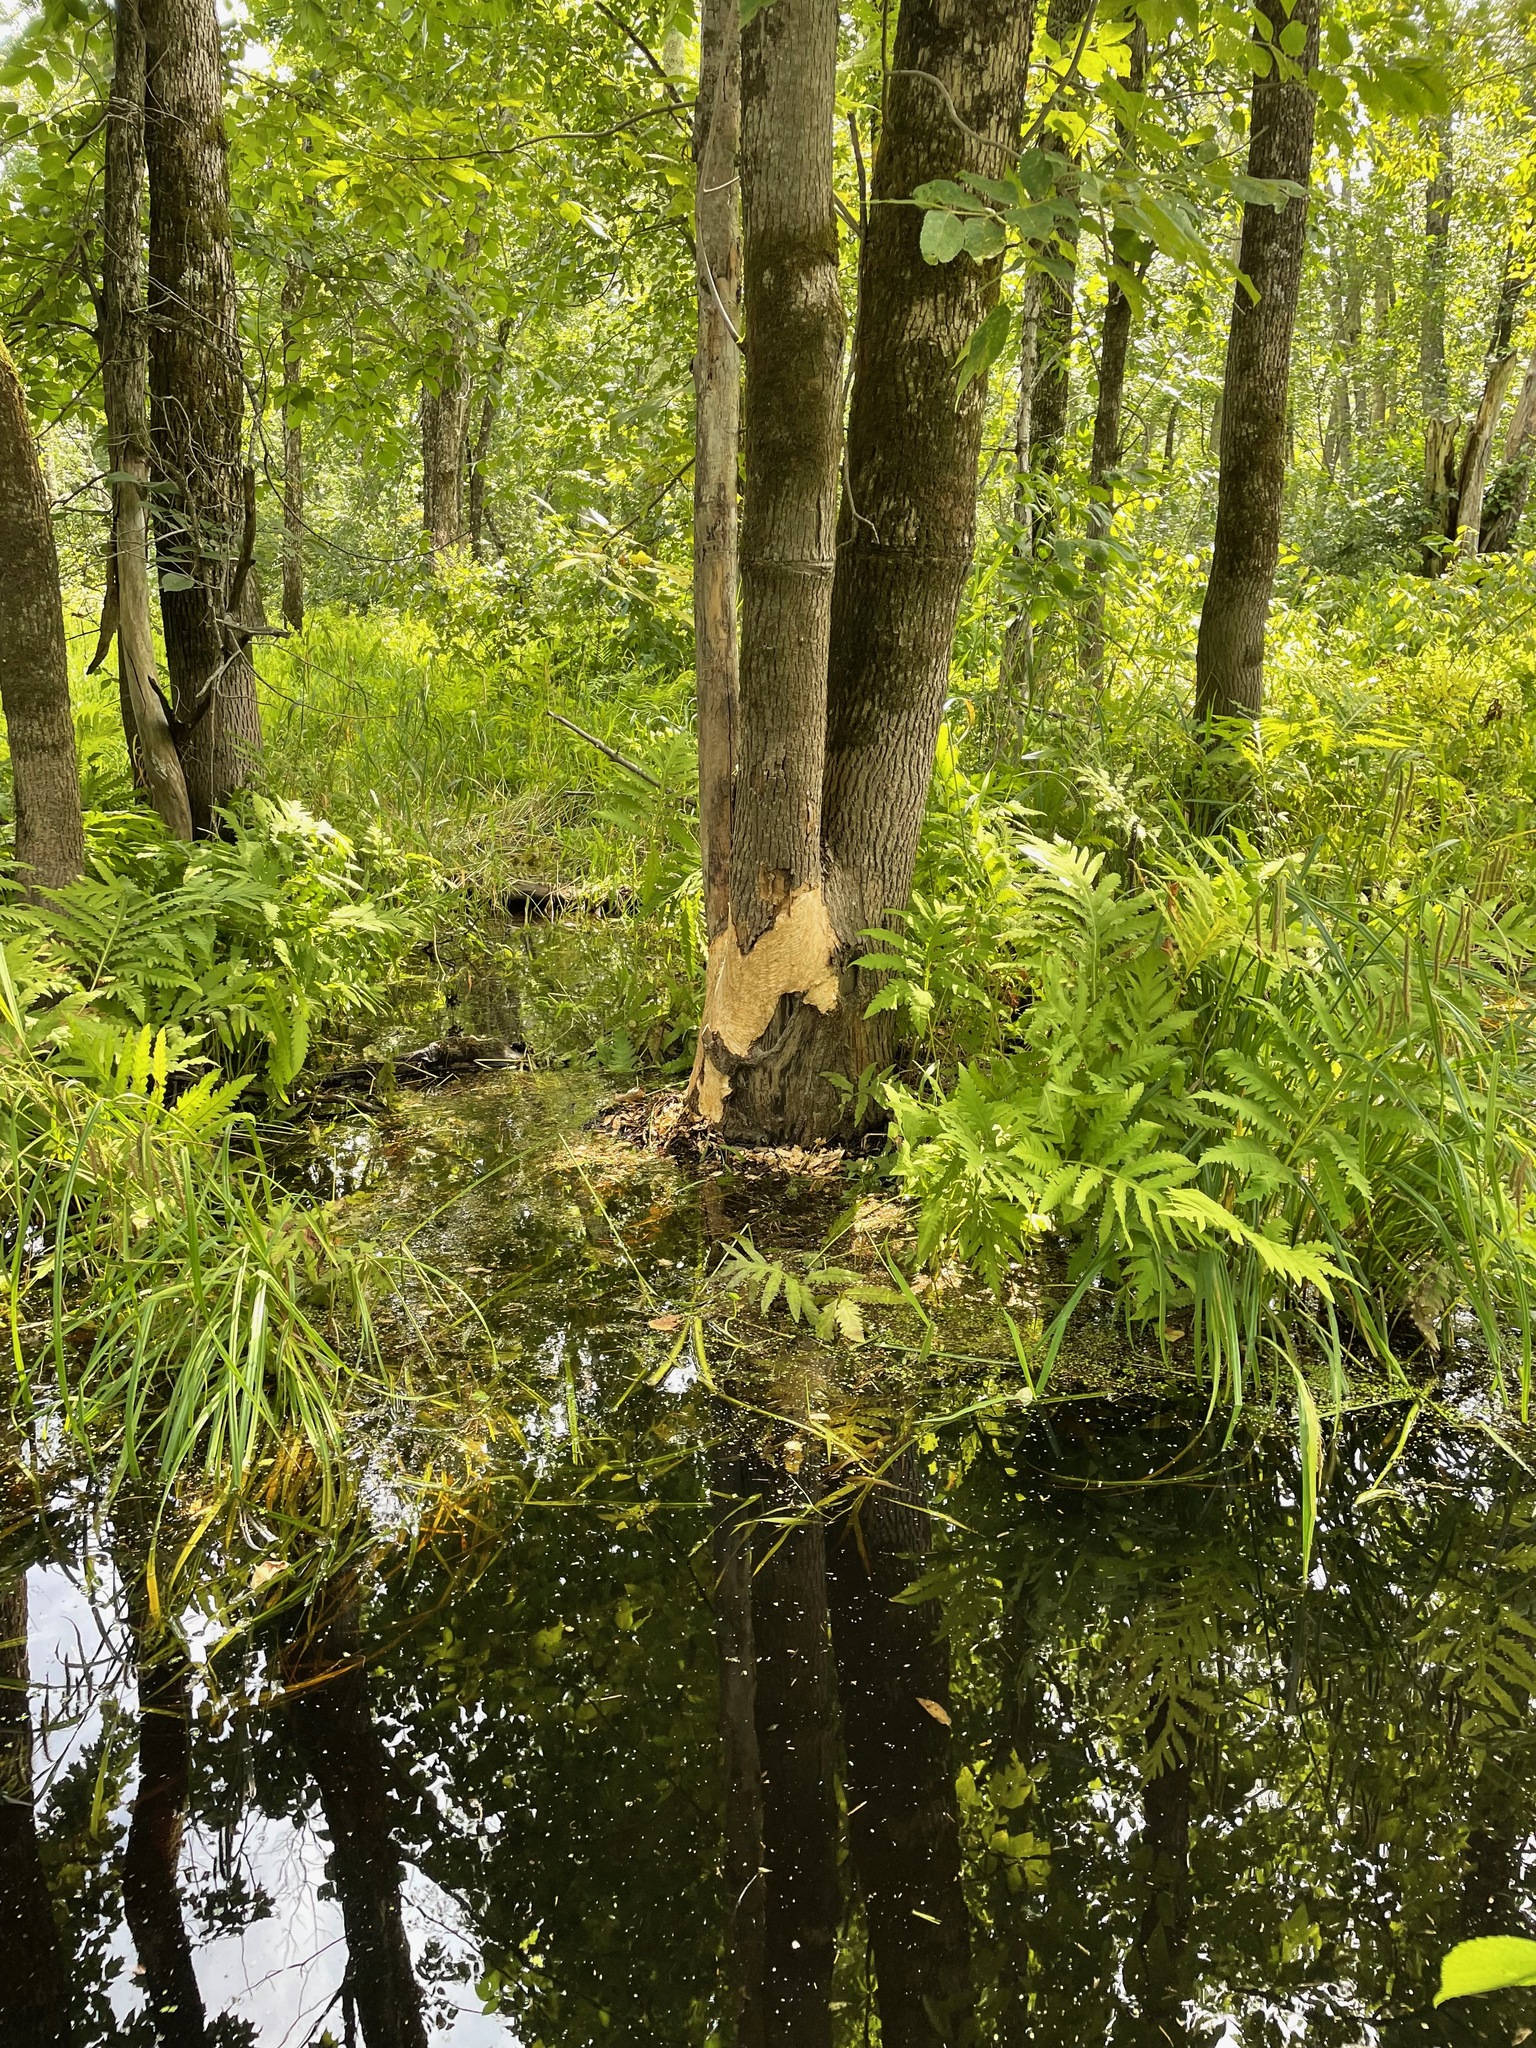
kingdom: Animalia
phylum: Chordata
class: Mammalia
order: Rodentia
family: Castoridae
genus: Castor
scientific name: Castor canadensis
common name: American beaver
